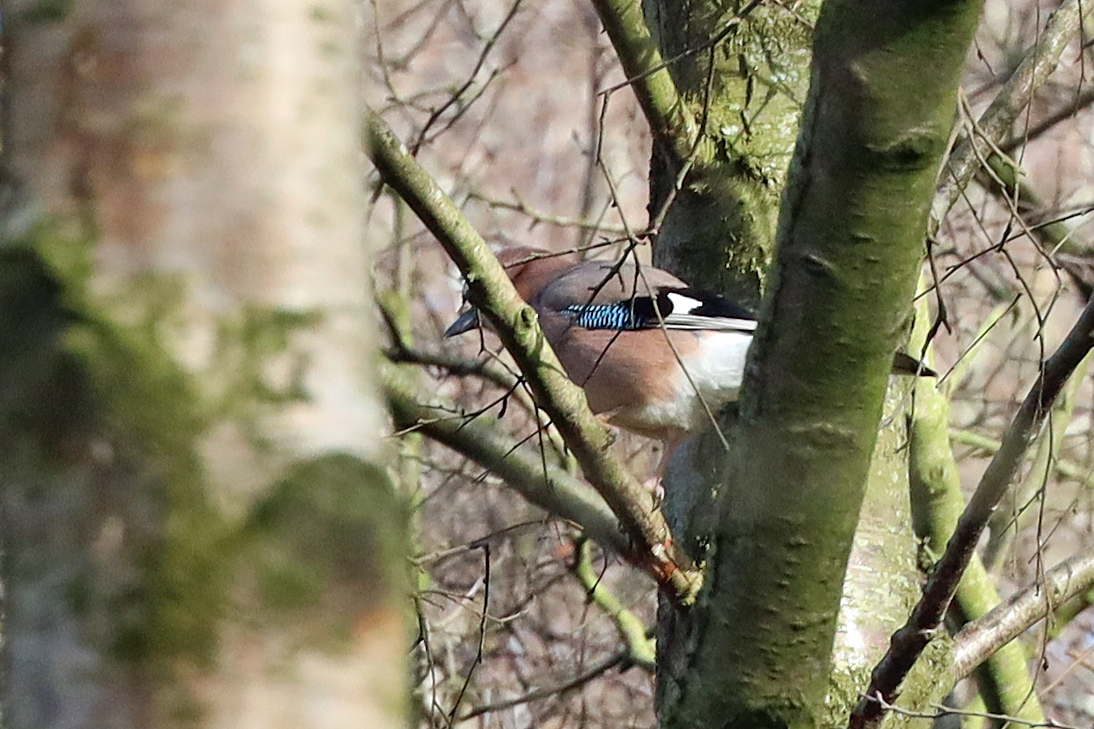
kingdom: Animalia
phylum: Chordata
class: Aves
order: Passeriformes
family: Corvidae
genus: Garrulus
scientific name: Garrulus glandarius
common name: Eurasian jay
